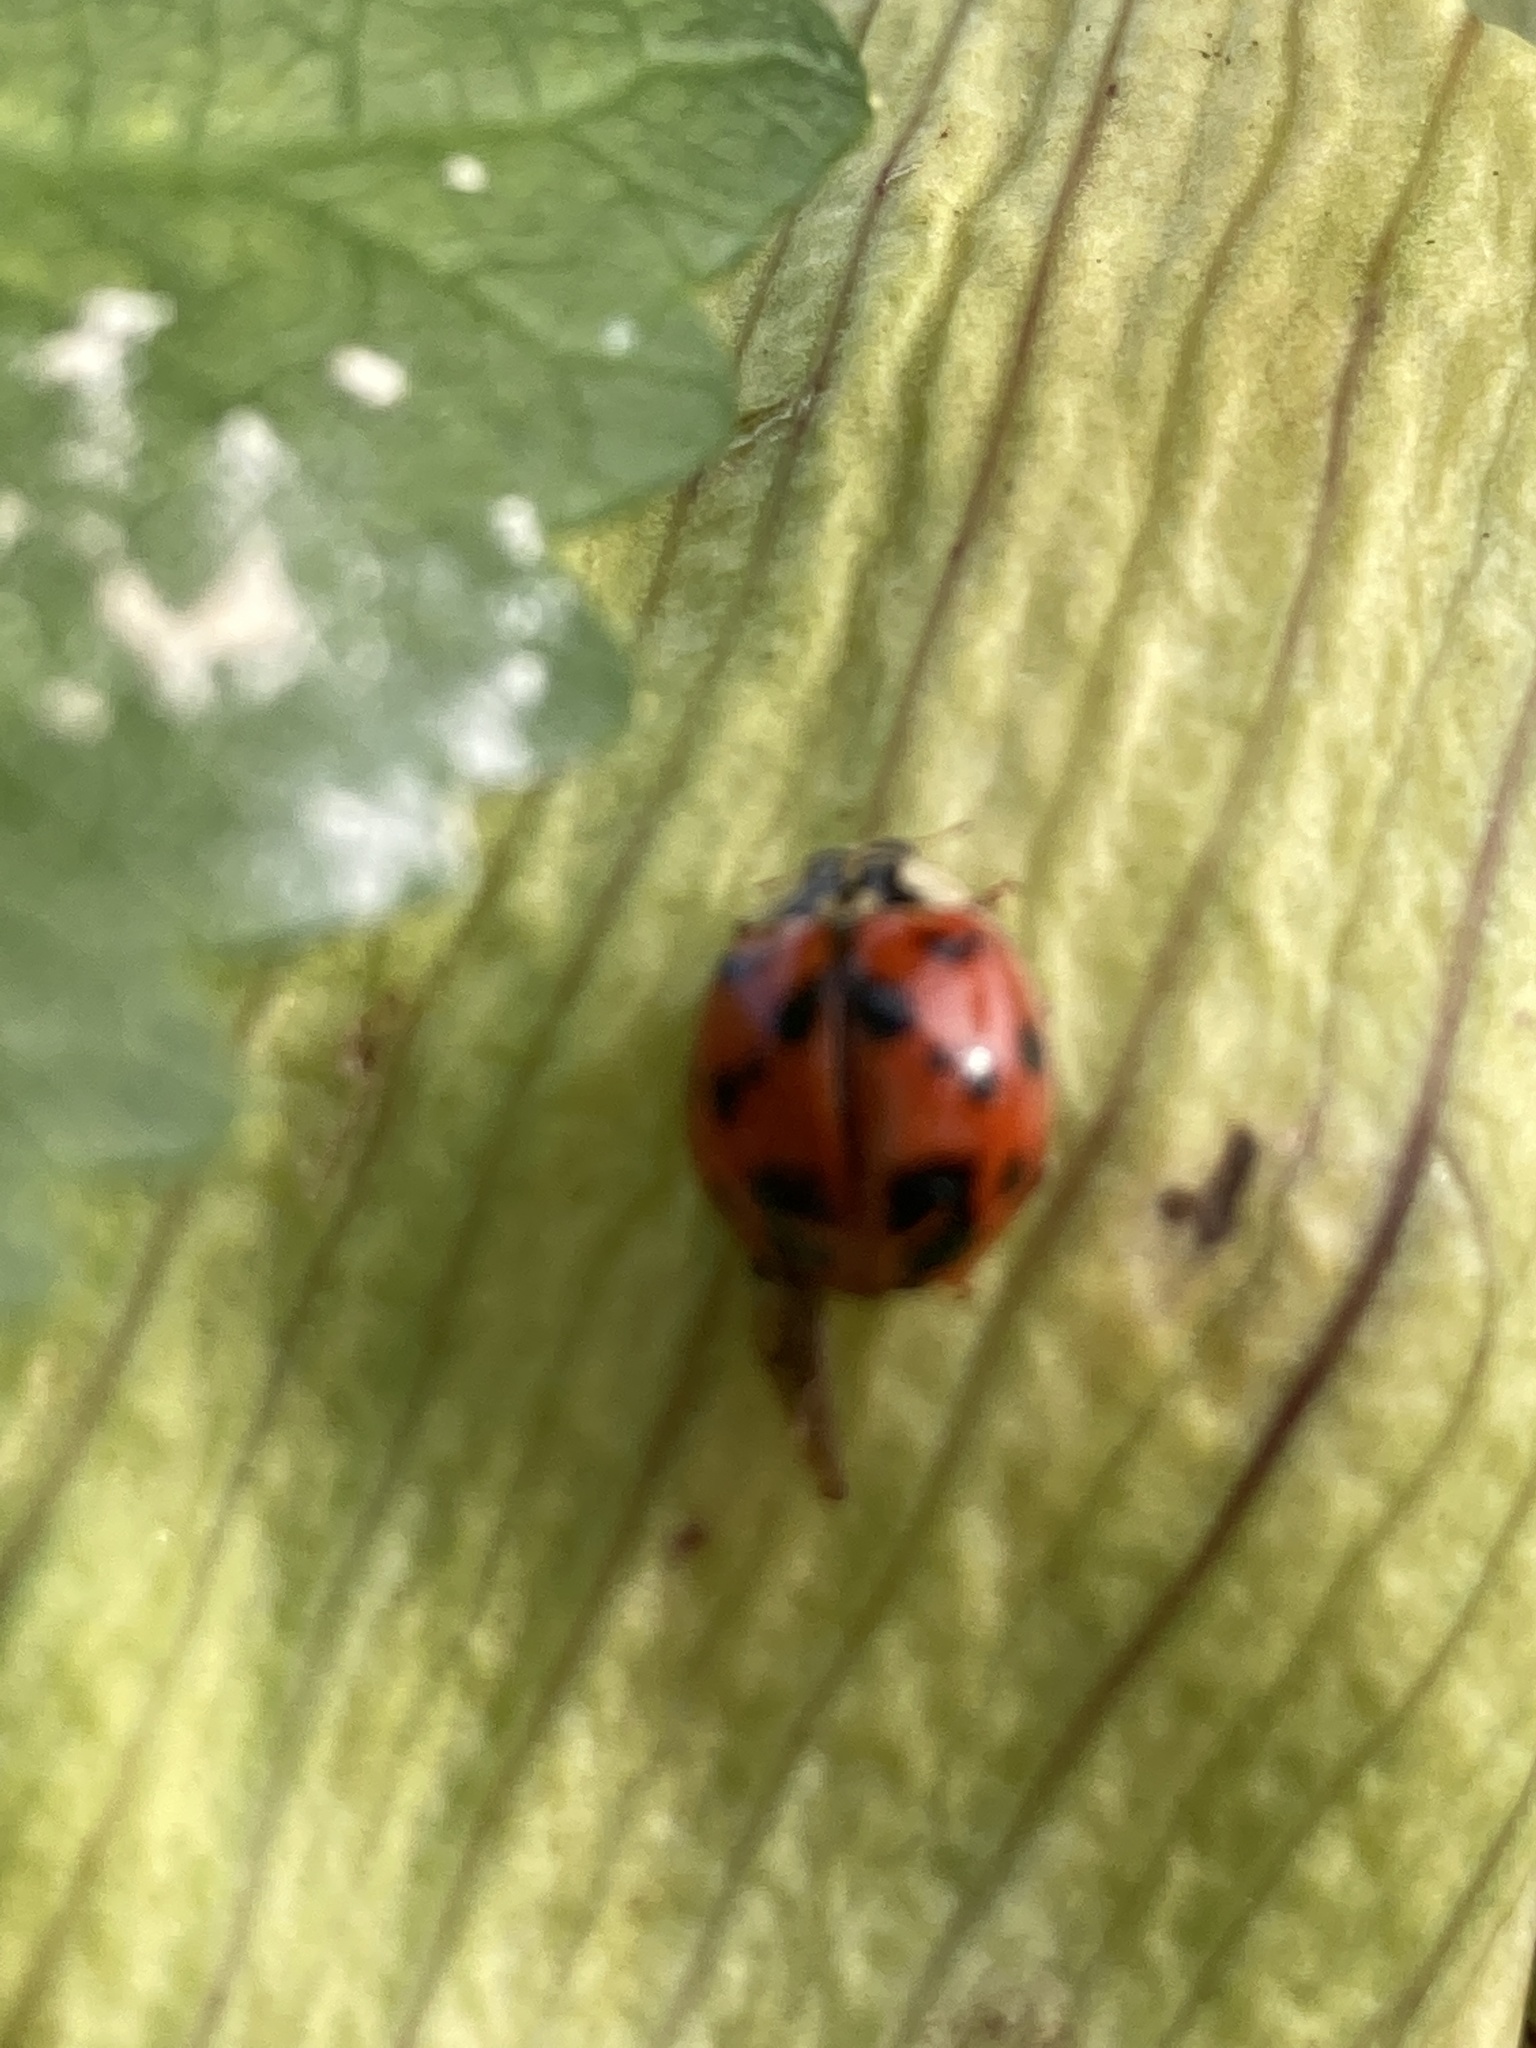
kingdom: Animalia
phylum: Arthropoda
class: Insecta
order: Coleoptera
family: Coccinellidae
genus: Harmonia
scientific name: Harmonia axyridis
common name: Harlequin ladybird
